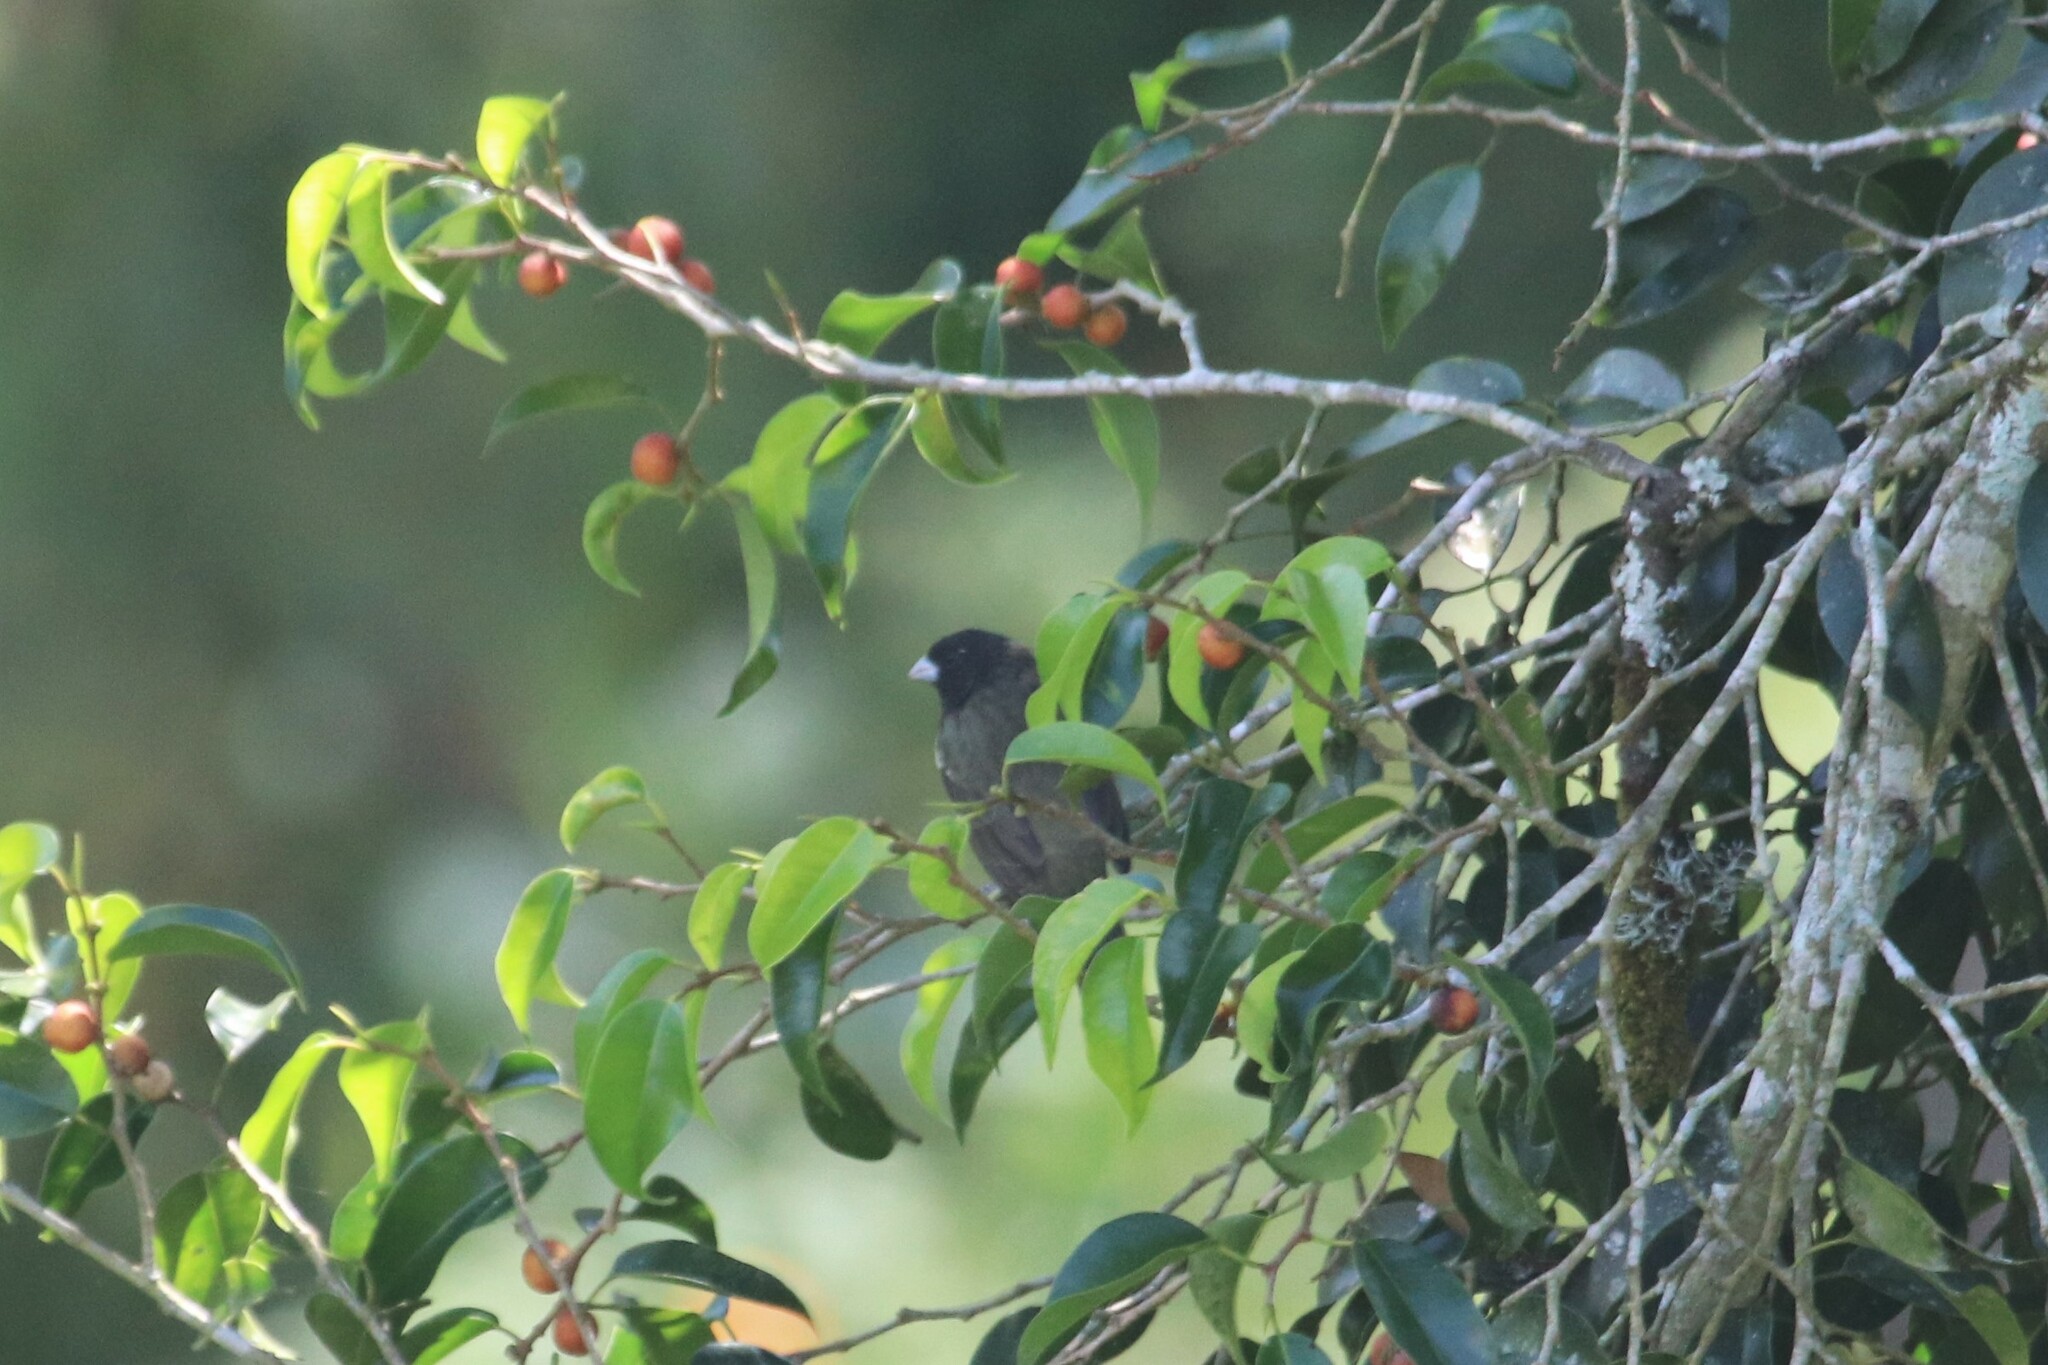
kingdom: Animalia
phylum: Chordata
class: Aves
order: Passeriformes
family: Thraupidae
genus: Sporophila
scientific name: Sporophila nigricollis
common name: Yellow-bellied seedeater
